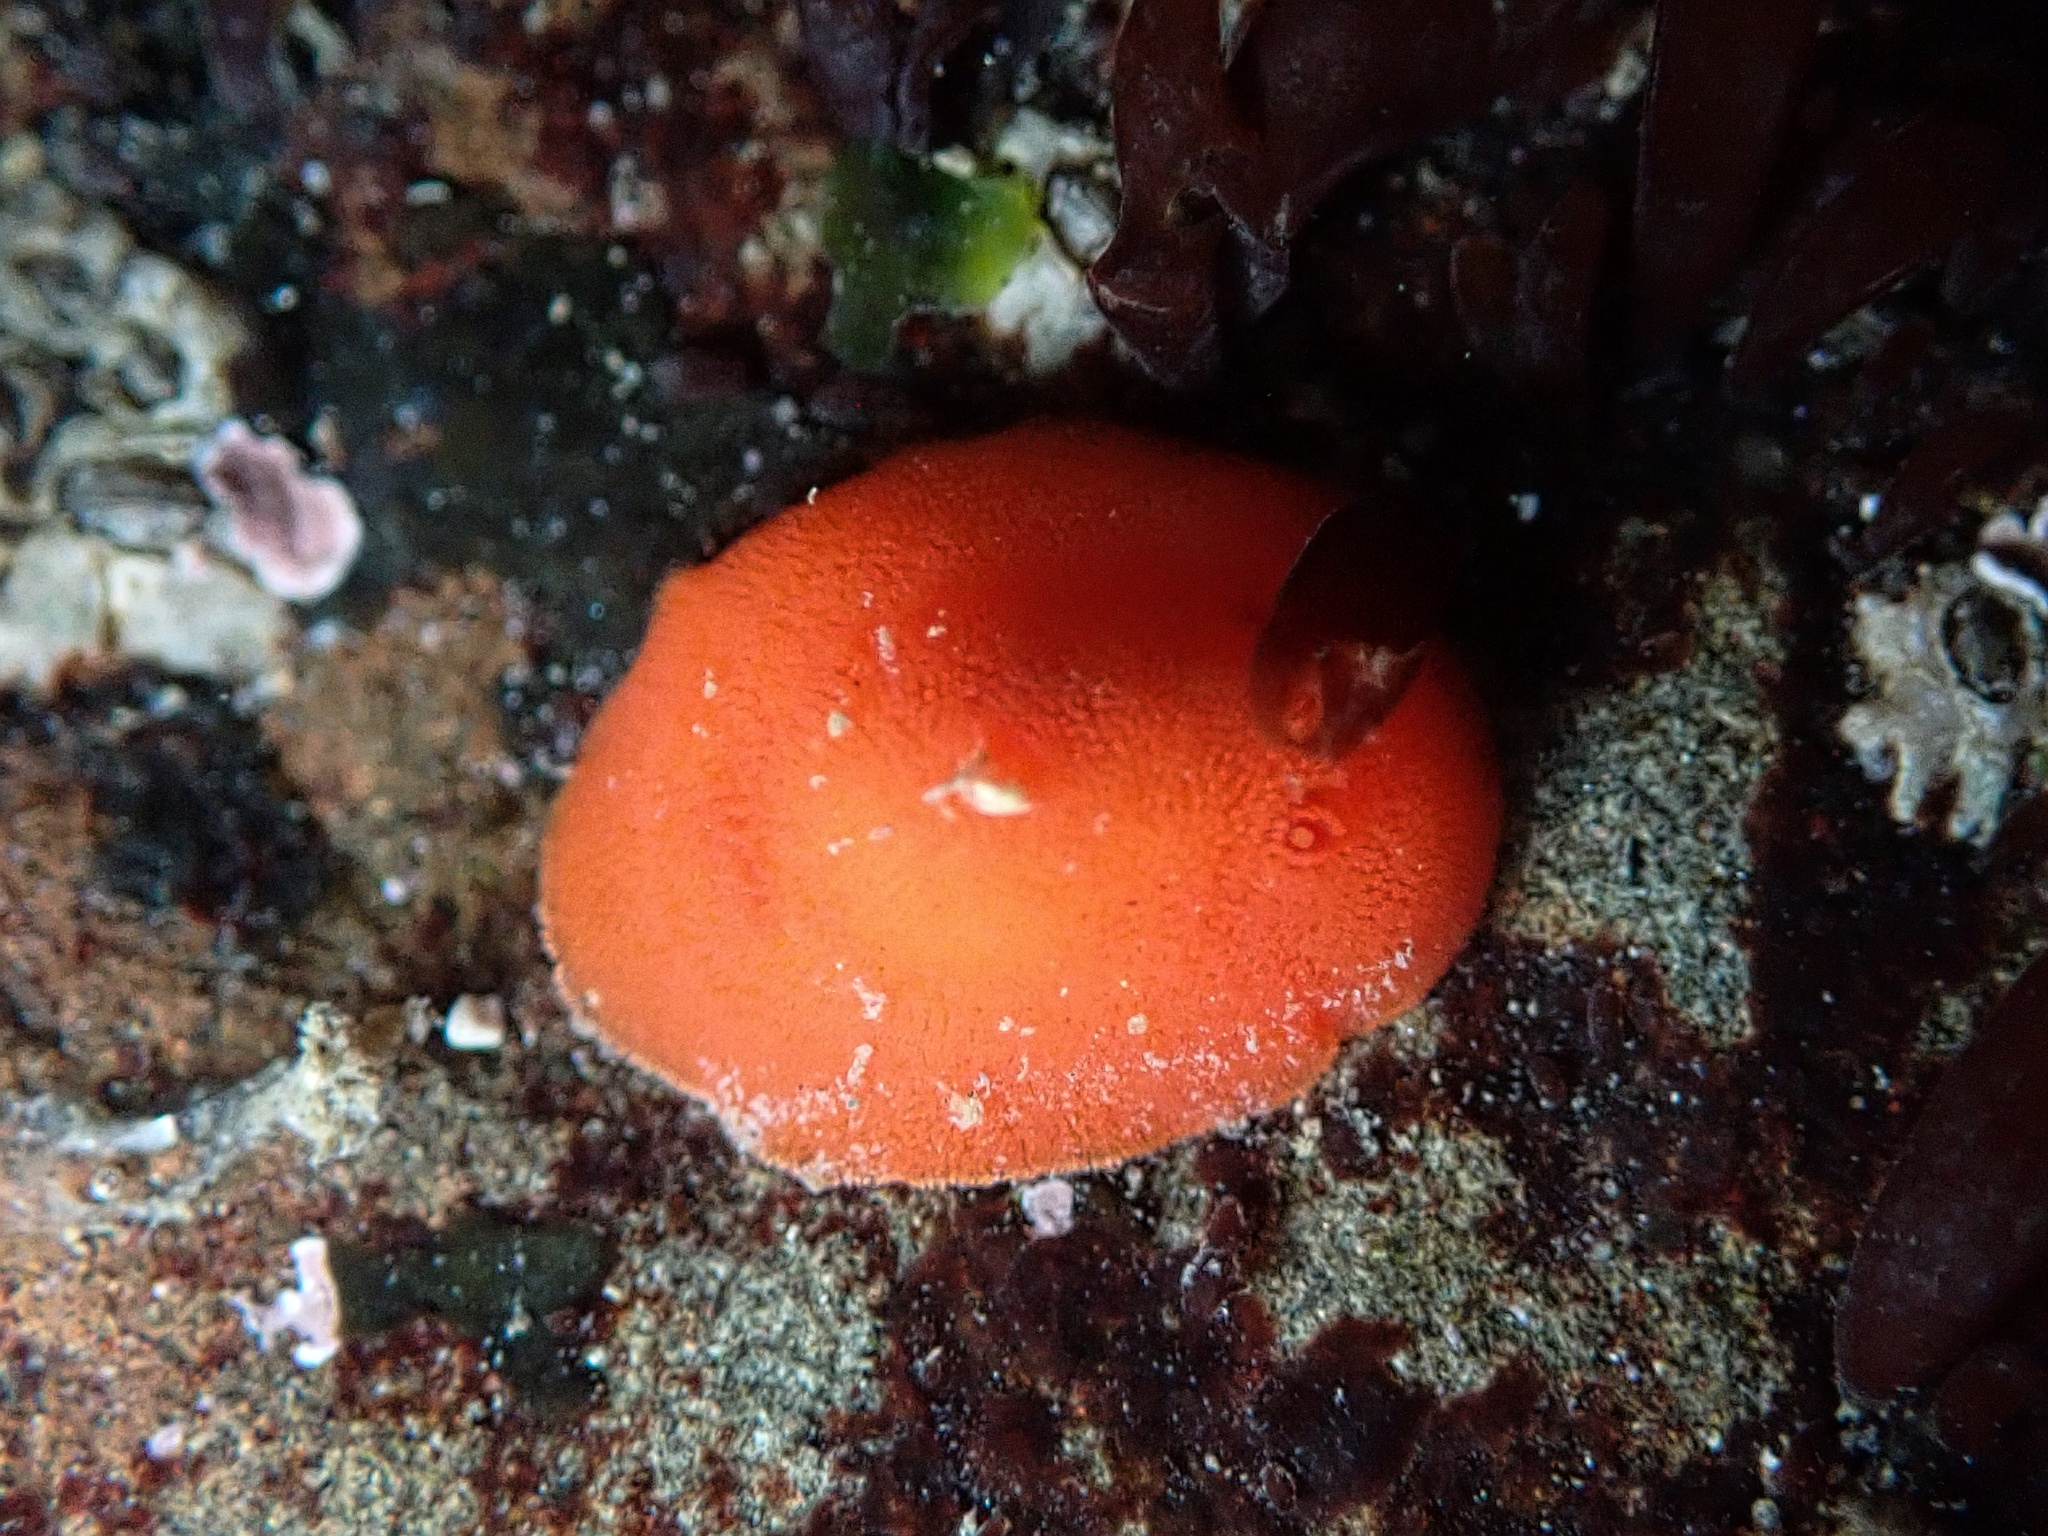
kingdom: Animalia
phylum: Mollusca
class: Gastropoda
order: Nudibranchia
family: Discodorididae
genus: Rostanga
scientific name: Rostanga pulchra
